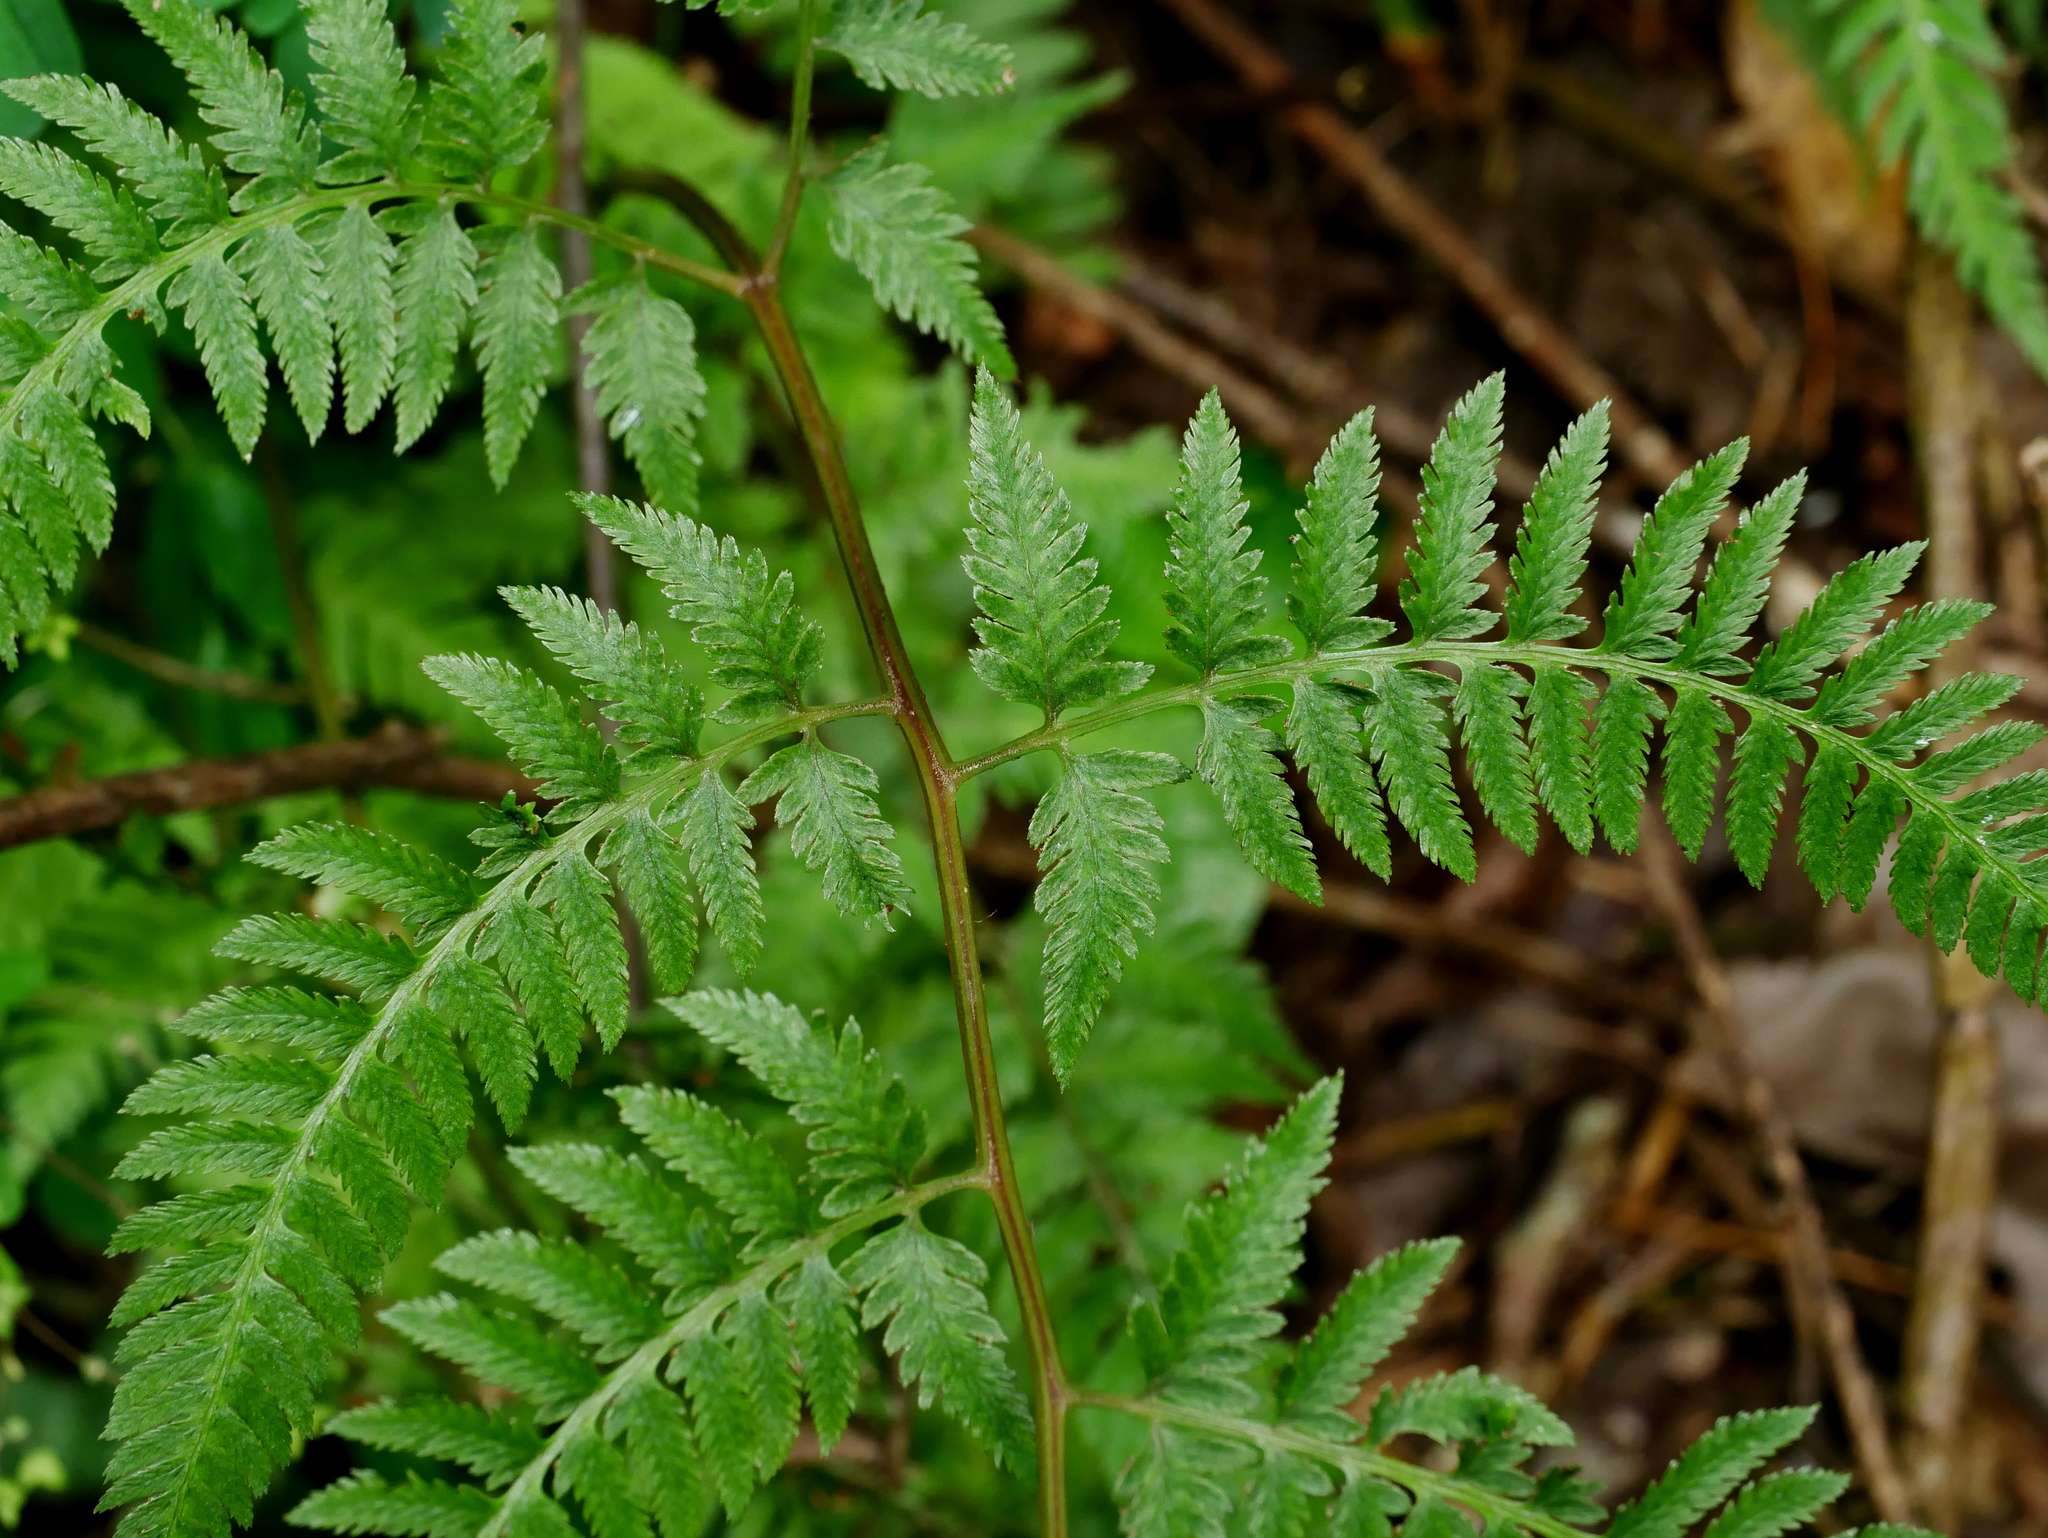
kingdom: Plantae
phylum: Tracheophyta
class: Polypodiopsida
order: Polypodiales
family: Athyriaceae
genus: Anisocampium
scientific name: Anisocampium niponicum
